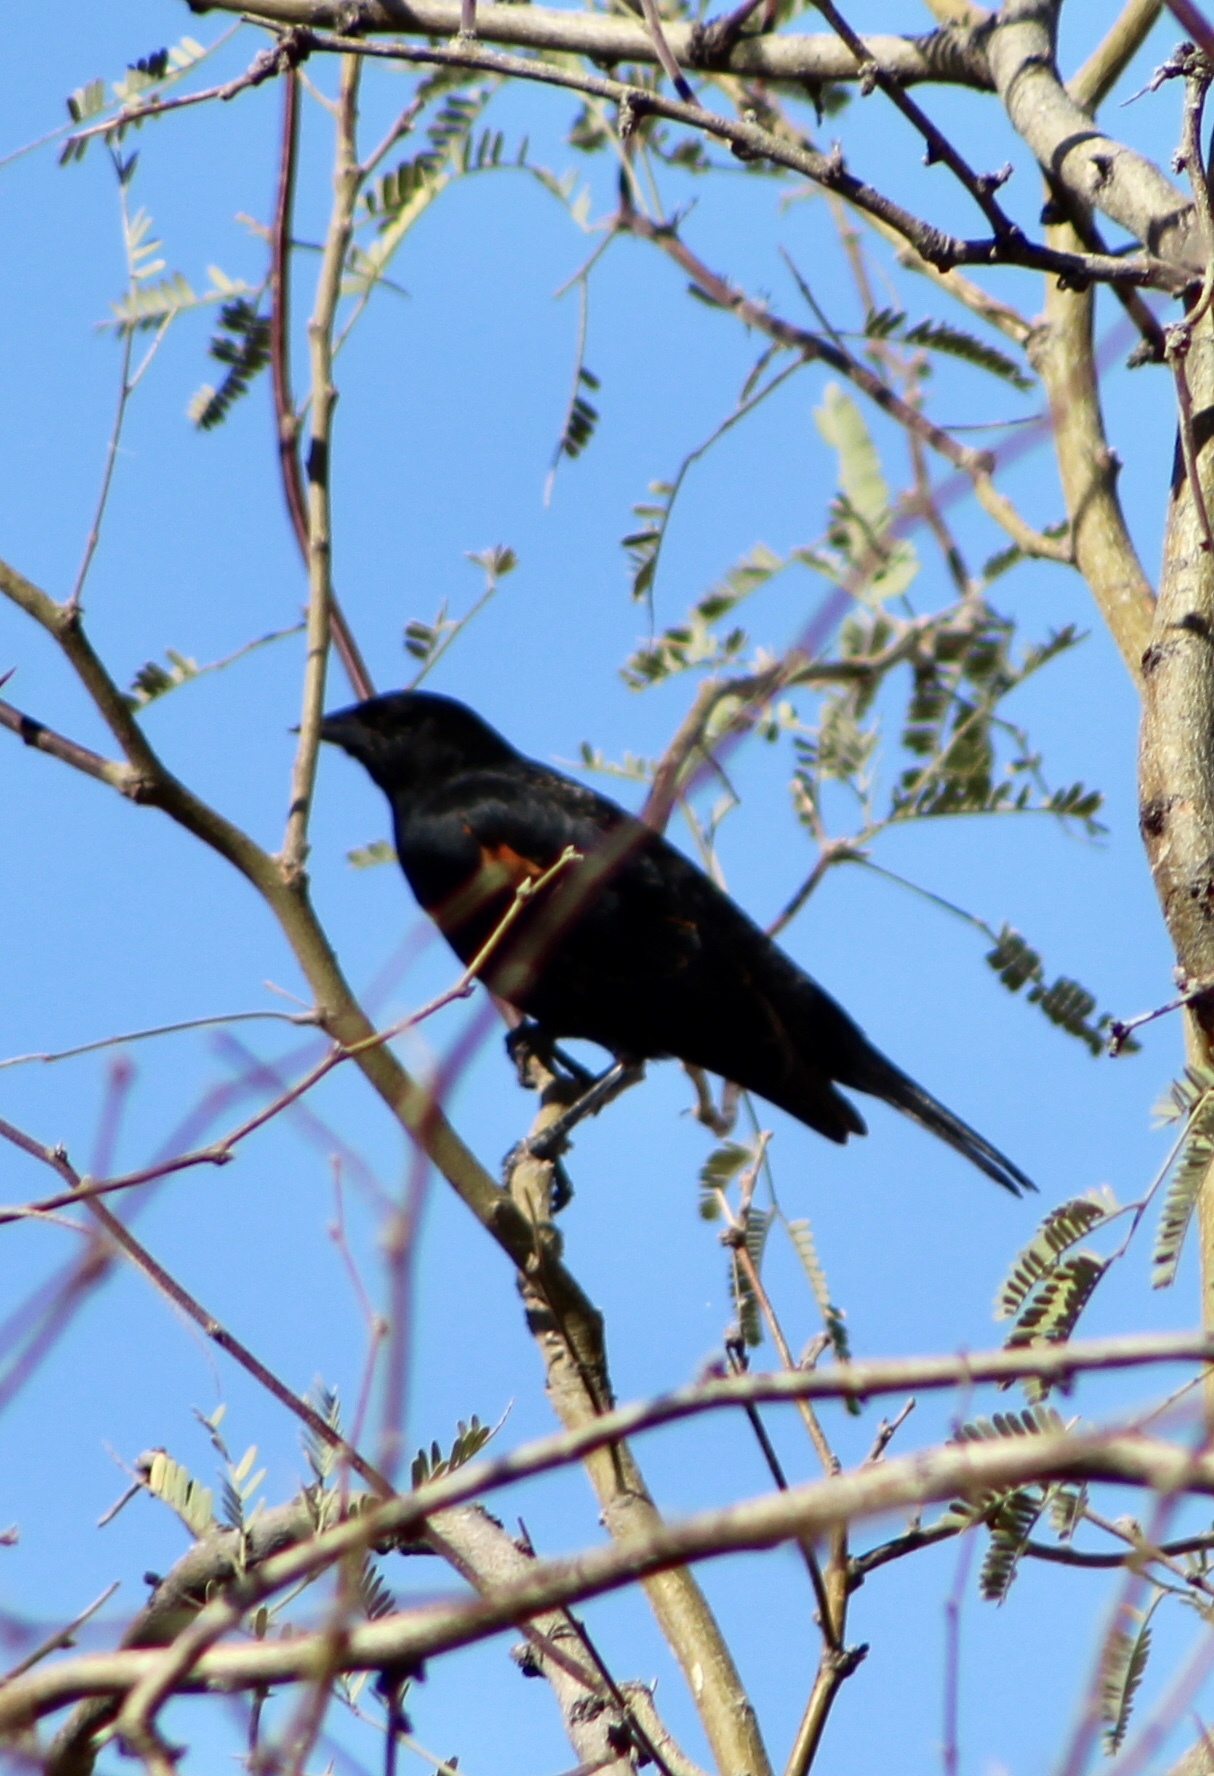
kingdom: Animalia
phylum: Chordata
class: Aves
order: Passeriformes
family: Icteridae
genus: Agelaius
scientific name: Agelaius phoeniceus
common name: Red-winged blackbird
